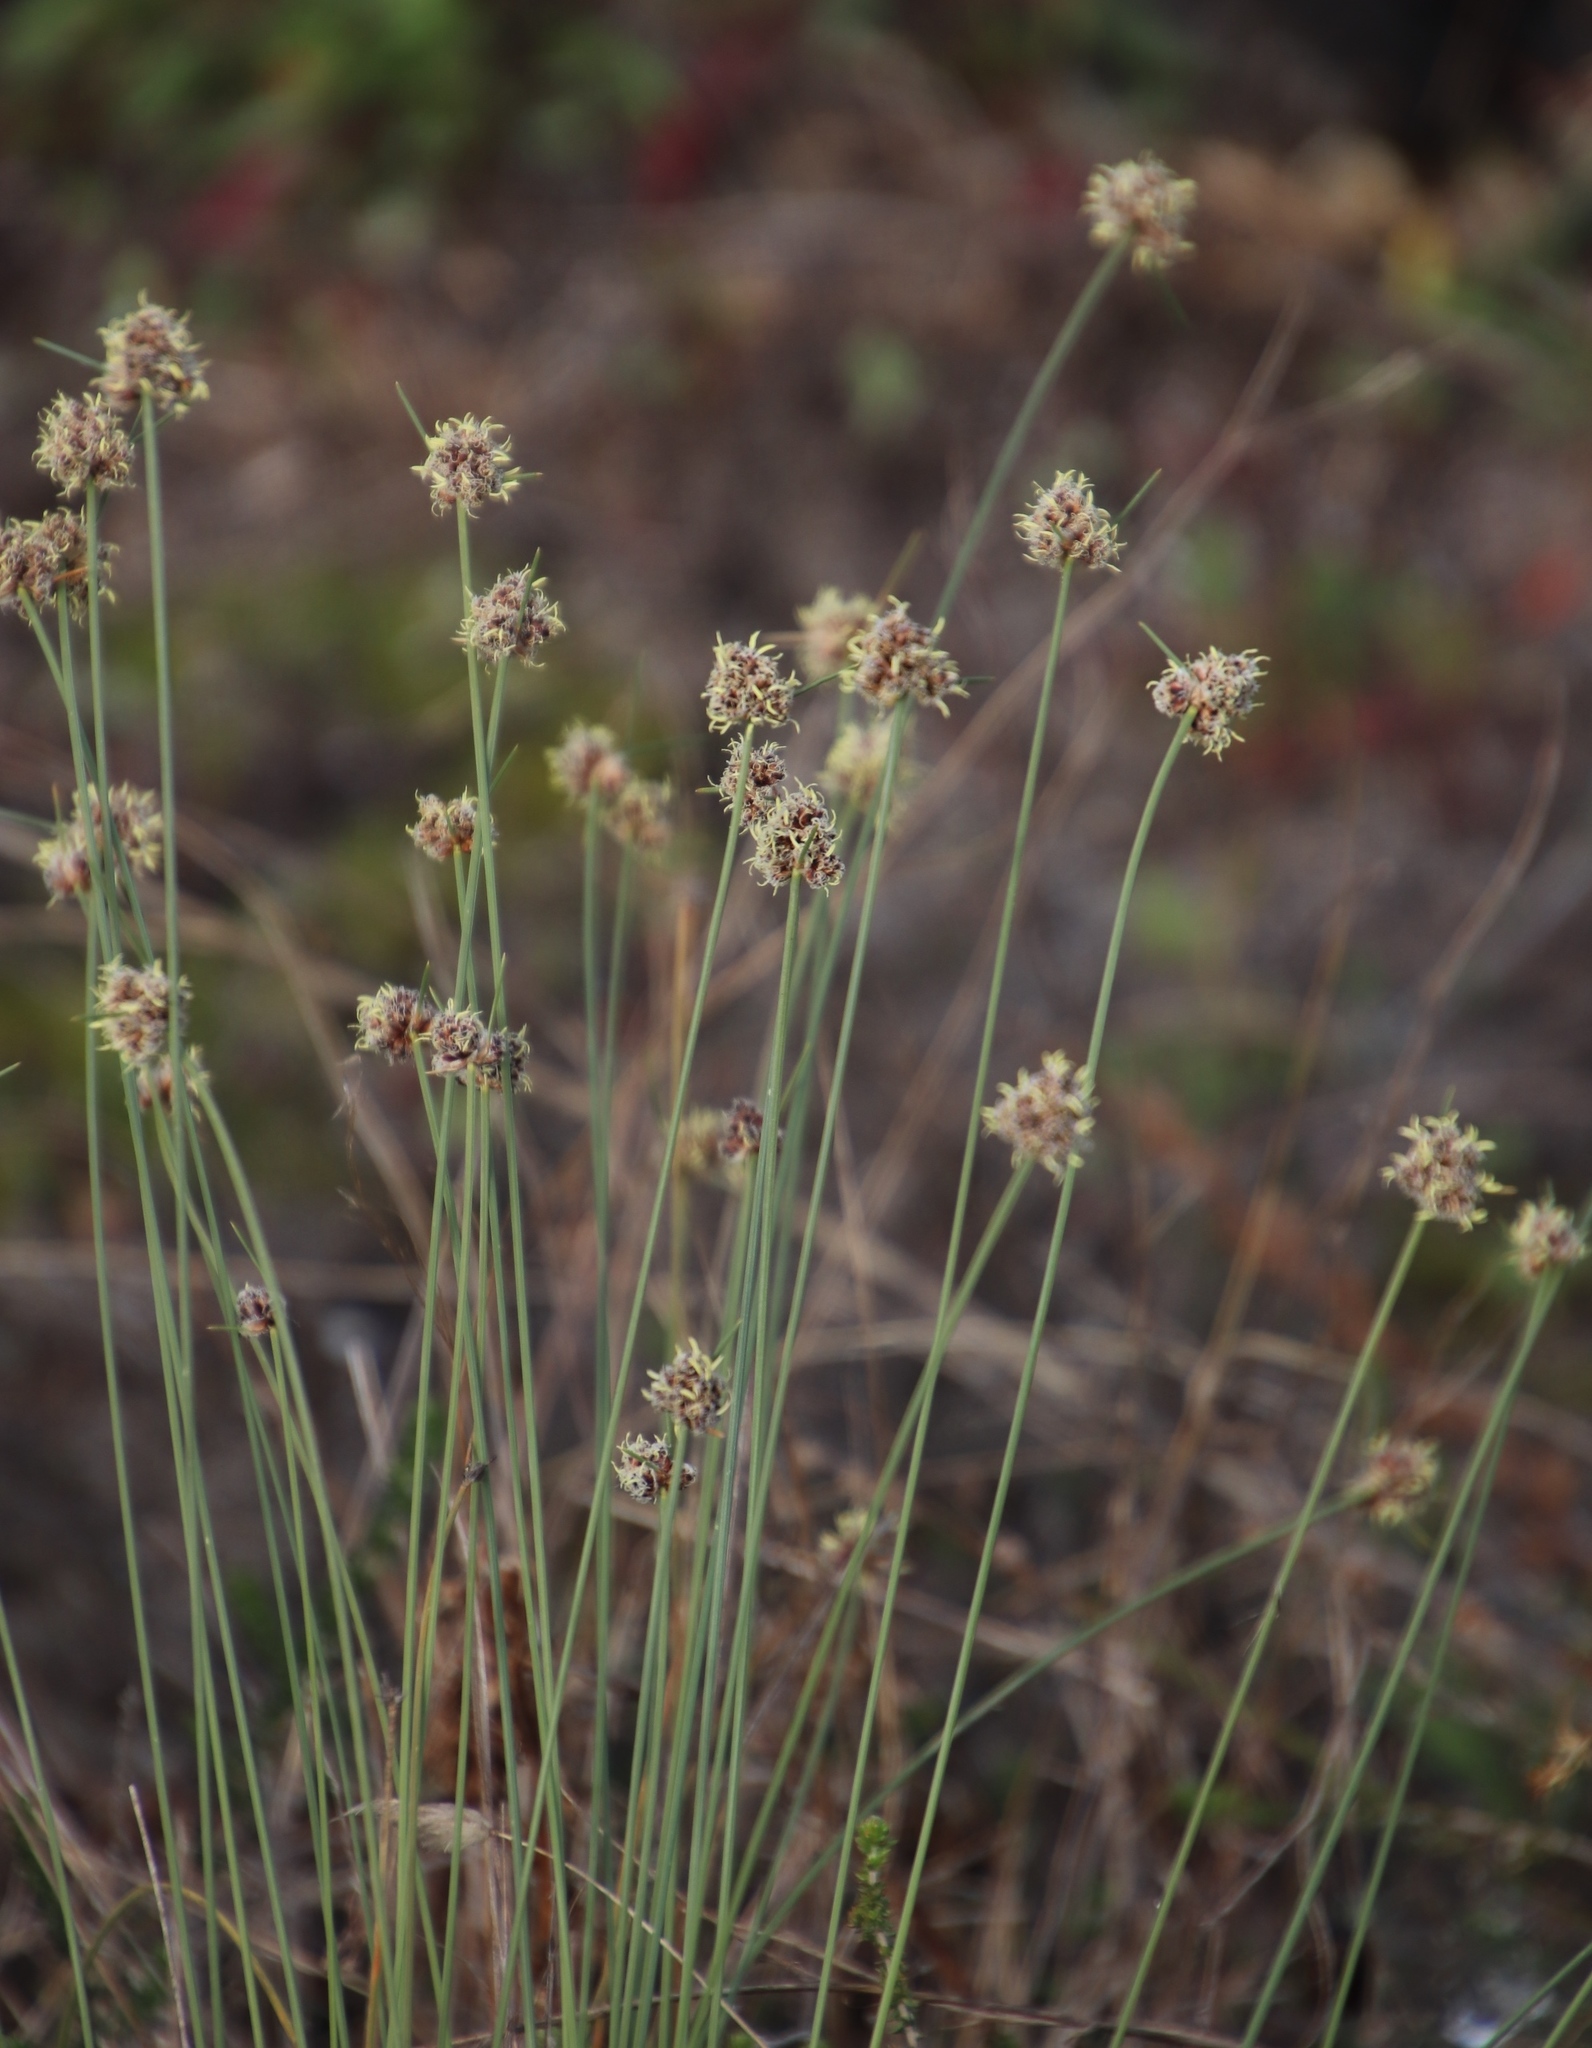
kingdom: Plantae
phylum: Tracheophyta
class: Liliopsida
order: Poales
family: Cyperaceae
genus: Ficinia
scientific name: Ficinia paradoxa
